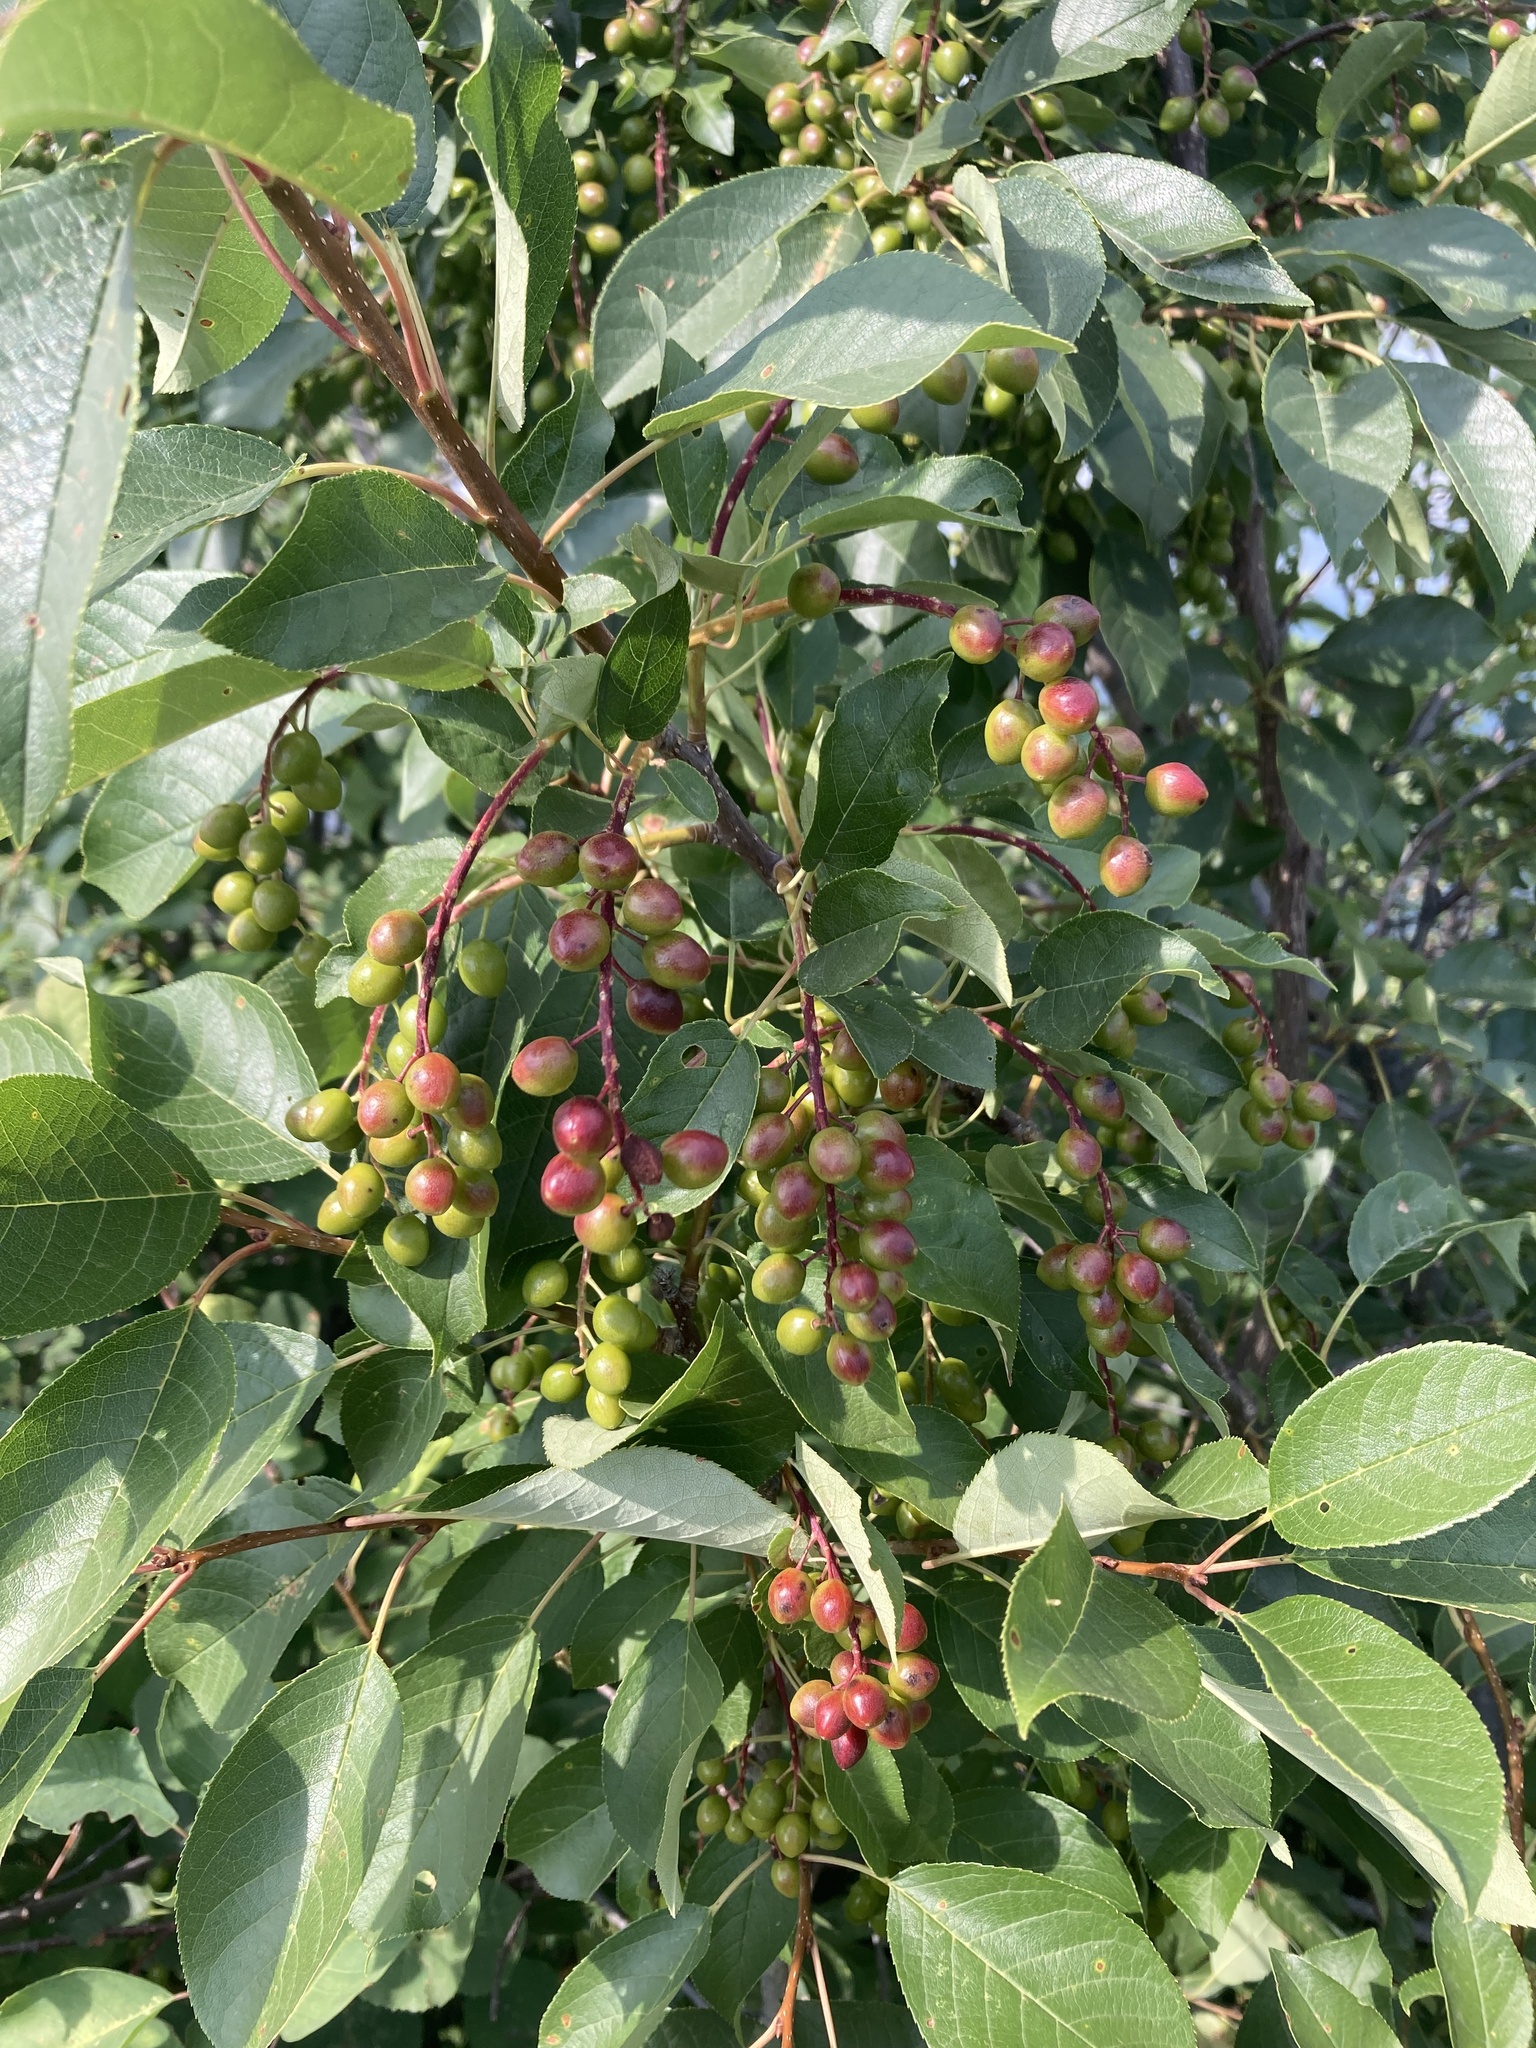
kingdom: Plantae
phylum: Tracheophyta
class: Magnoliopsida
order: Rosales
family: Rosaceae
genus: Prunus
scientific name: Prunus virginiana
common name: Chokecherry
